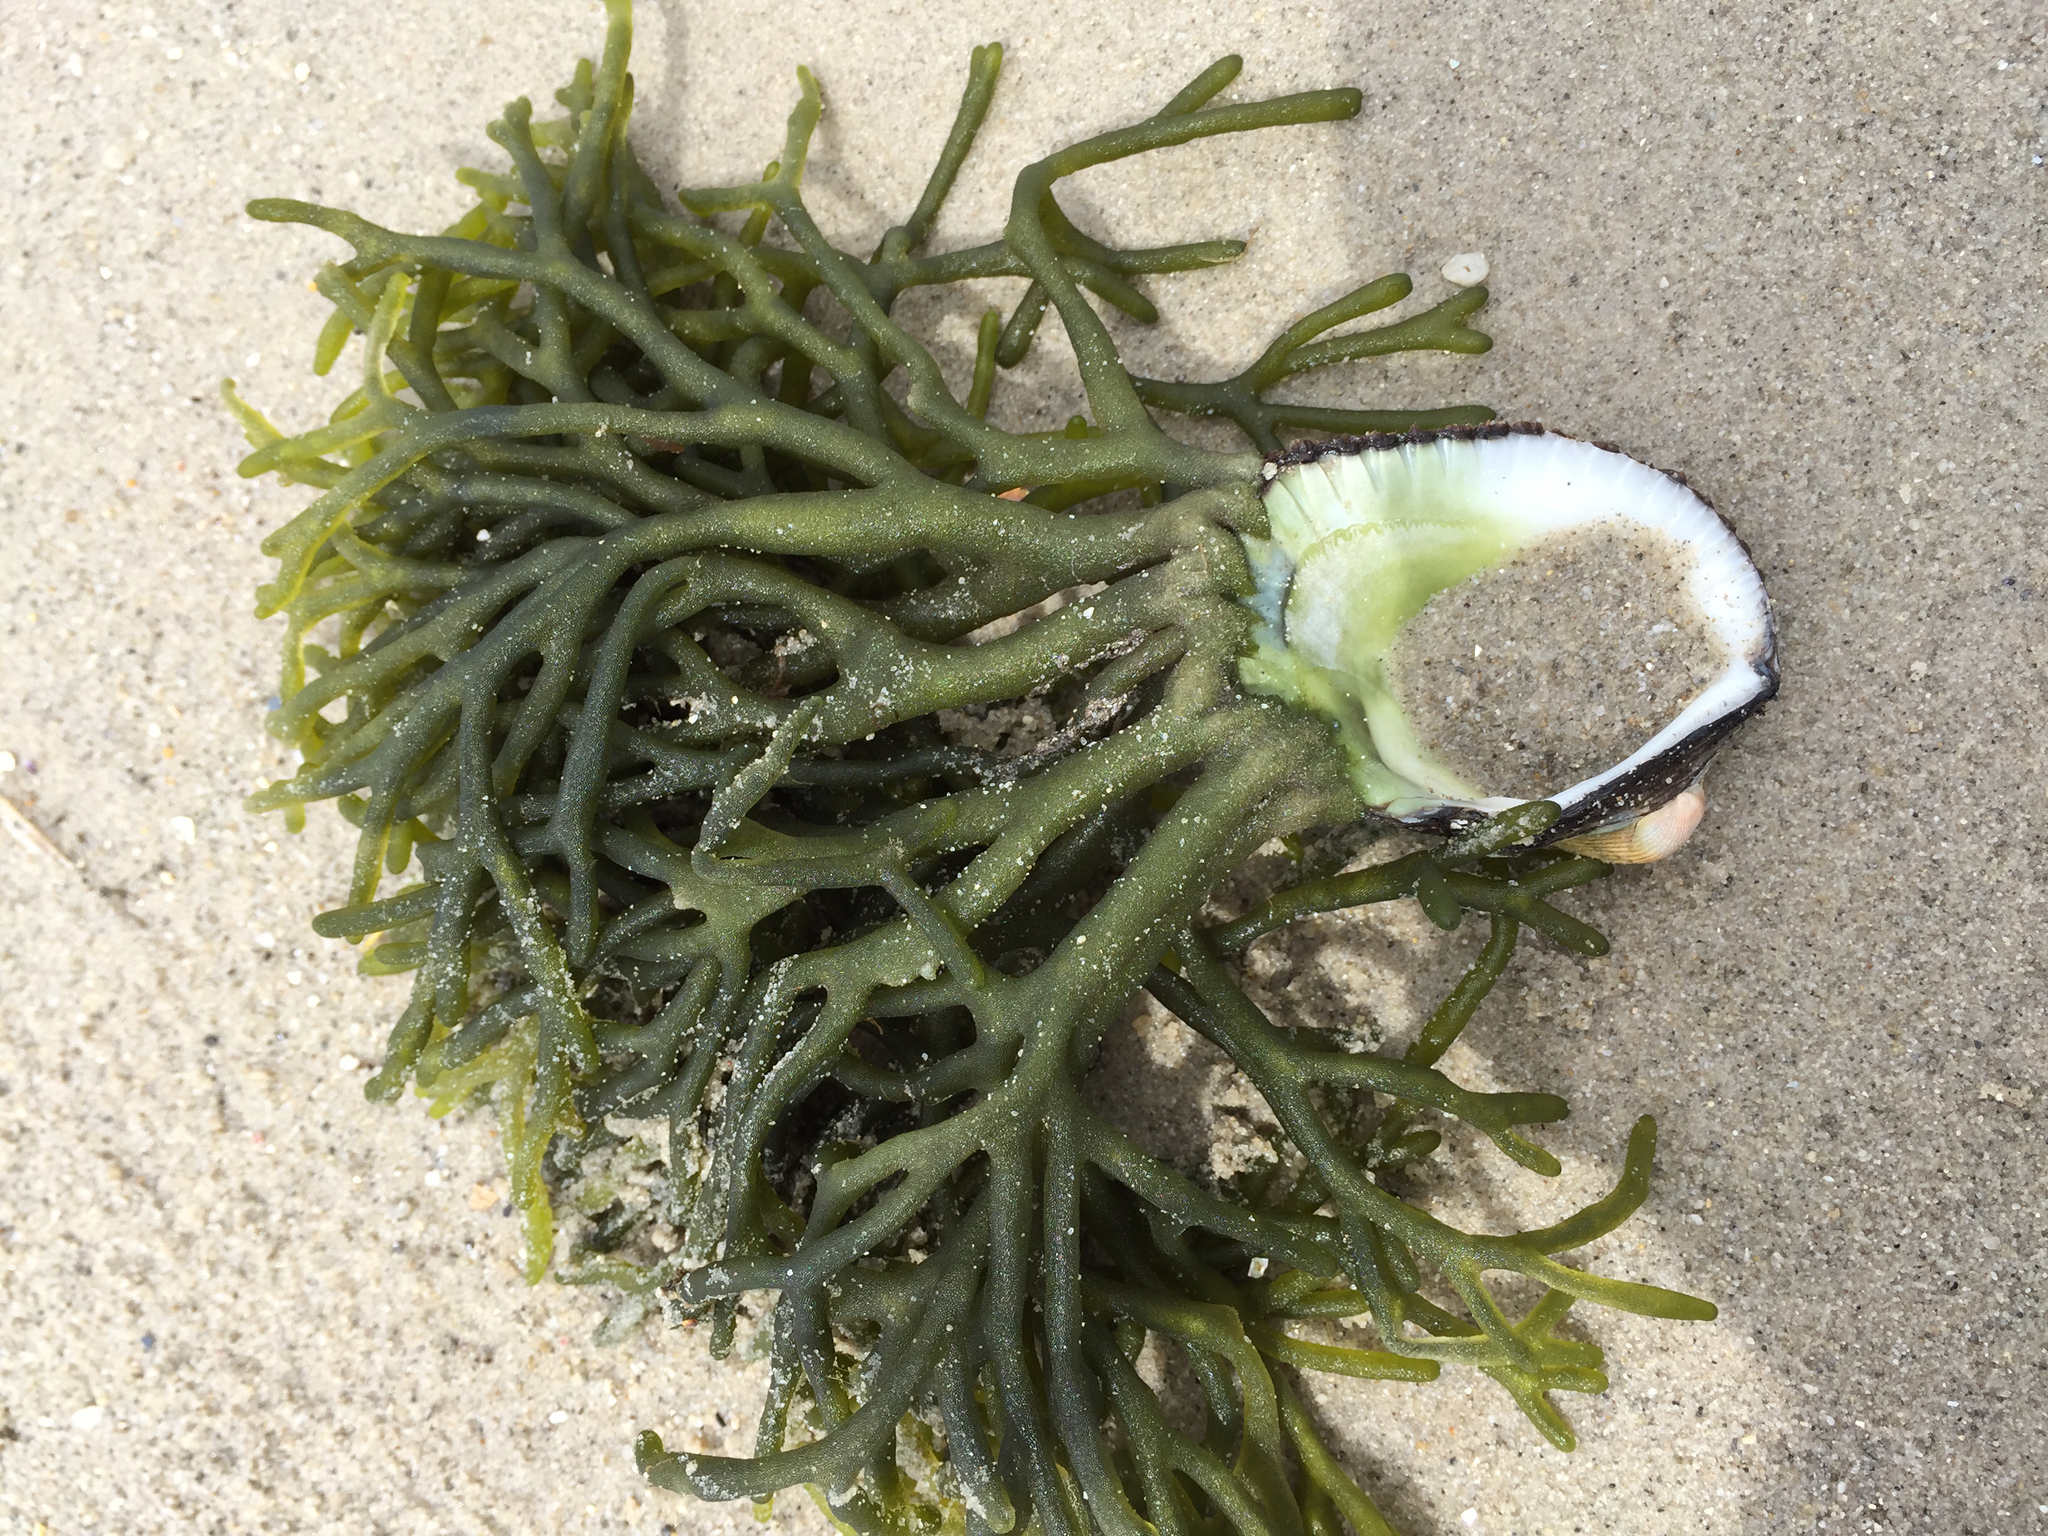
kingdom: Animalia
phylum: Mollusca
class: Bivalvia
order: Arcida
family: Arcidae
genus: Anadara
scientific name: Anadara trapezia
